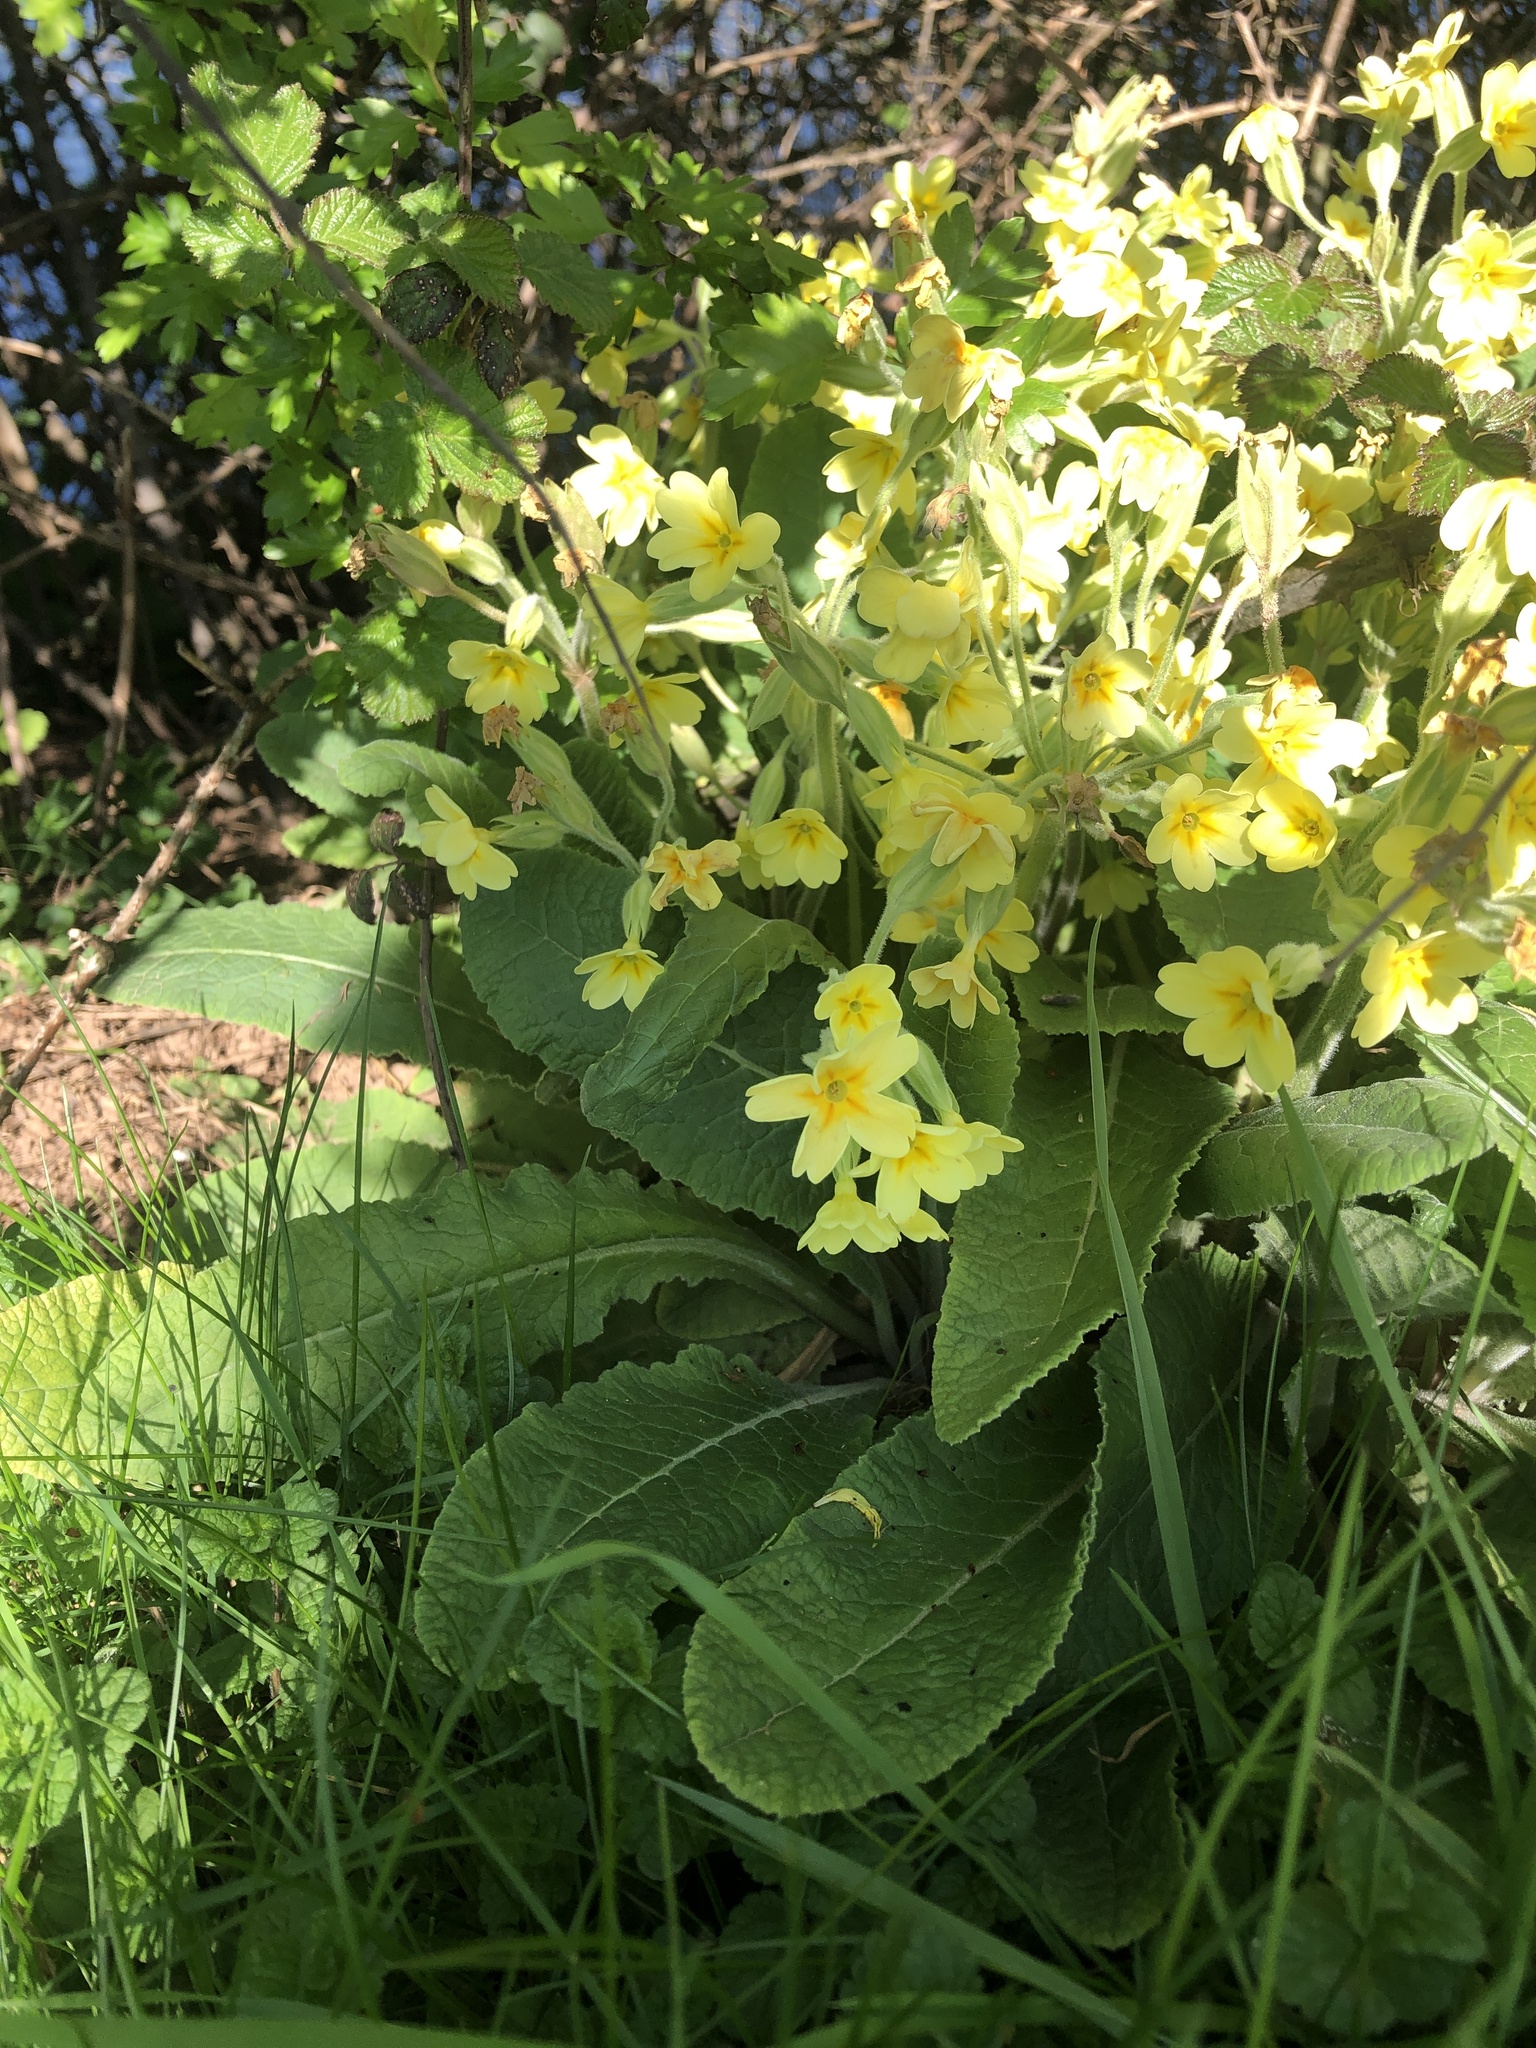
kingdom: Plantae
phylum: Tracheophyta
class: Magnoliopsida
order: Ericales
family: Primulaceae
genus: Primula
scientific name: Primula vulgaris
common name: Primrose
